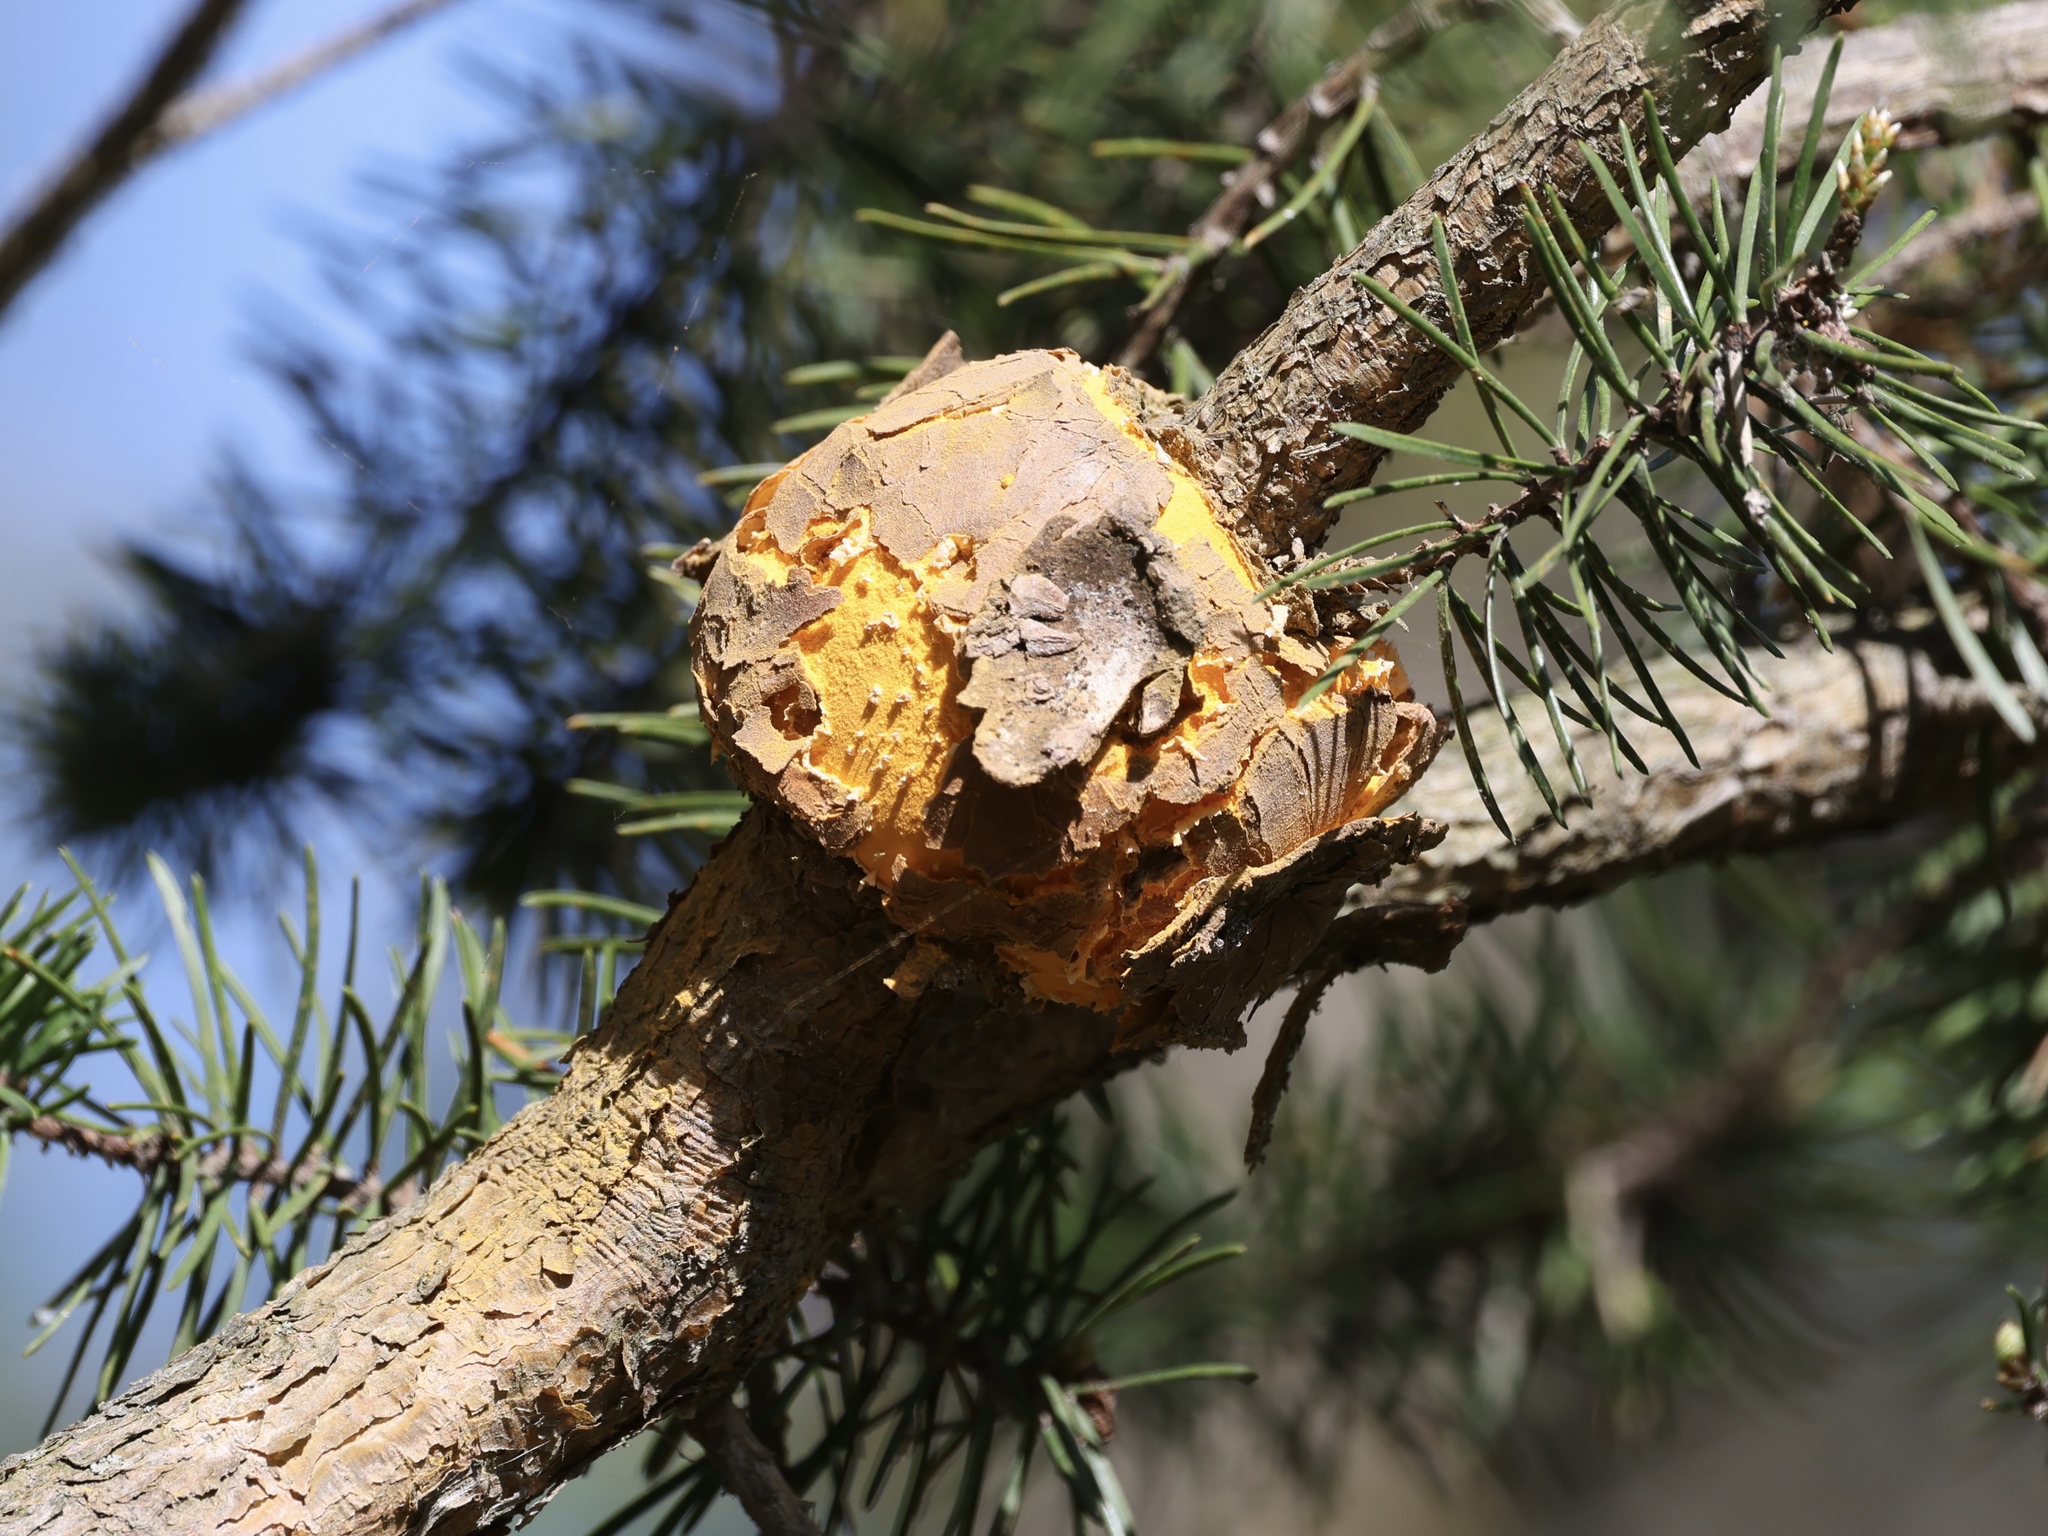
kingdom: Fungi
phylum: Basidiomycota
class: Pucciniomycetes
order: Pucciniales
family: Cronartiaceae
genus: Cronartium
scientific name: Cronartium quercuum
